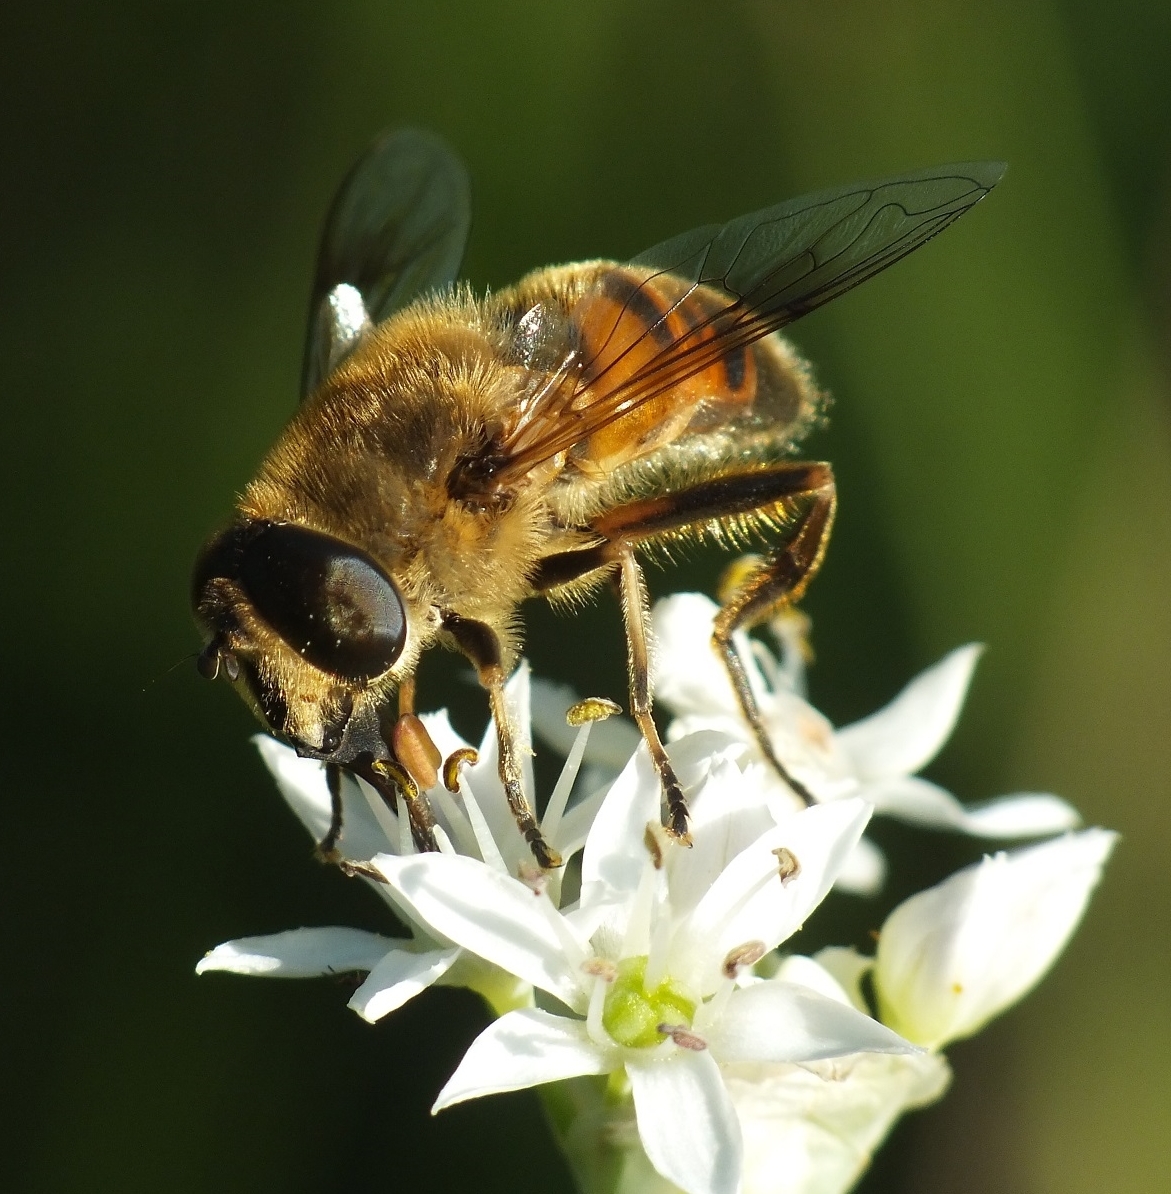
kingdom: Animalia
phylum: Arthropoda
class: Insecta
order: Diptera
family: Syrphidae
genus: Eristalis
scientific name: Eristalis tenax
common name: Drone fly
